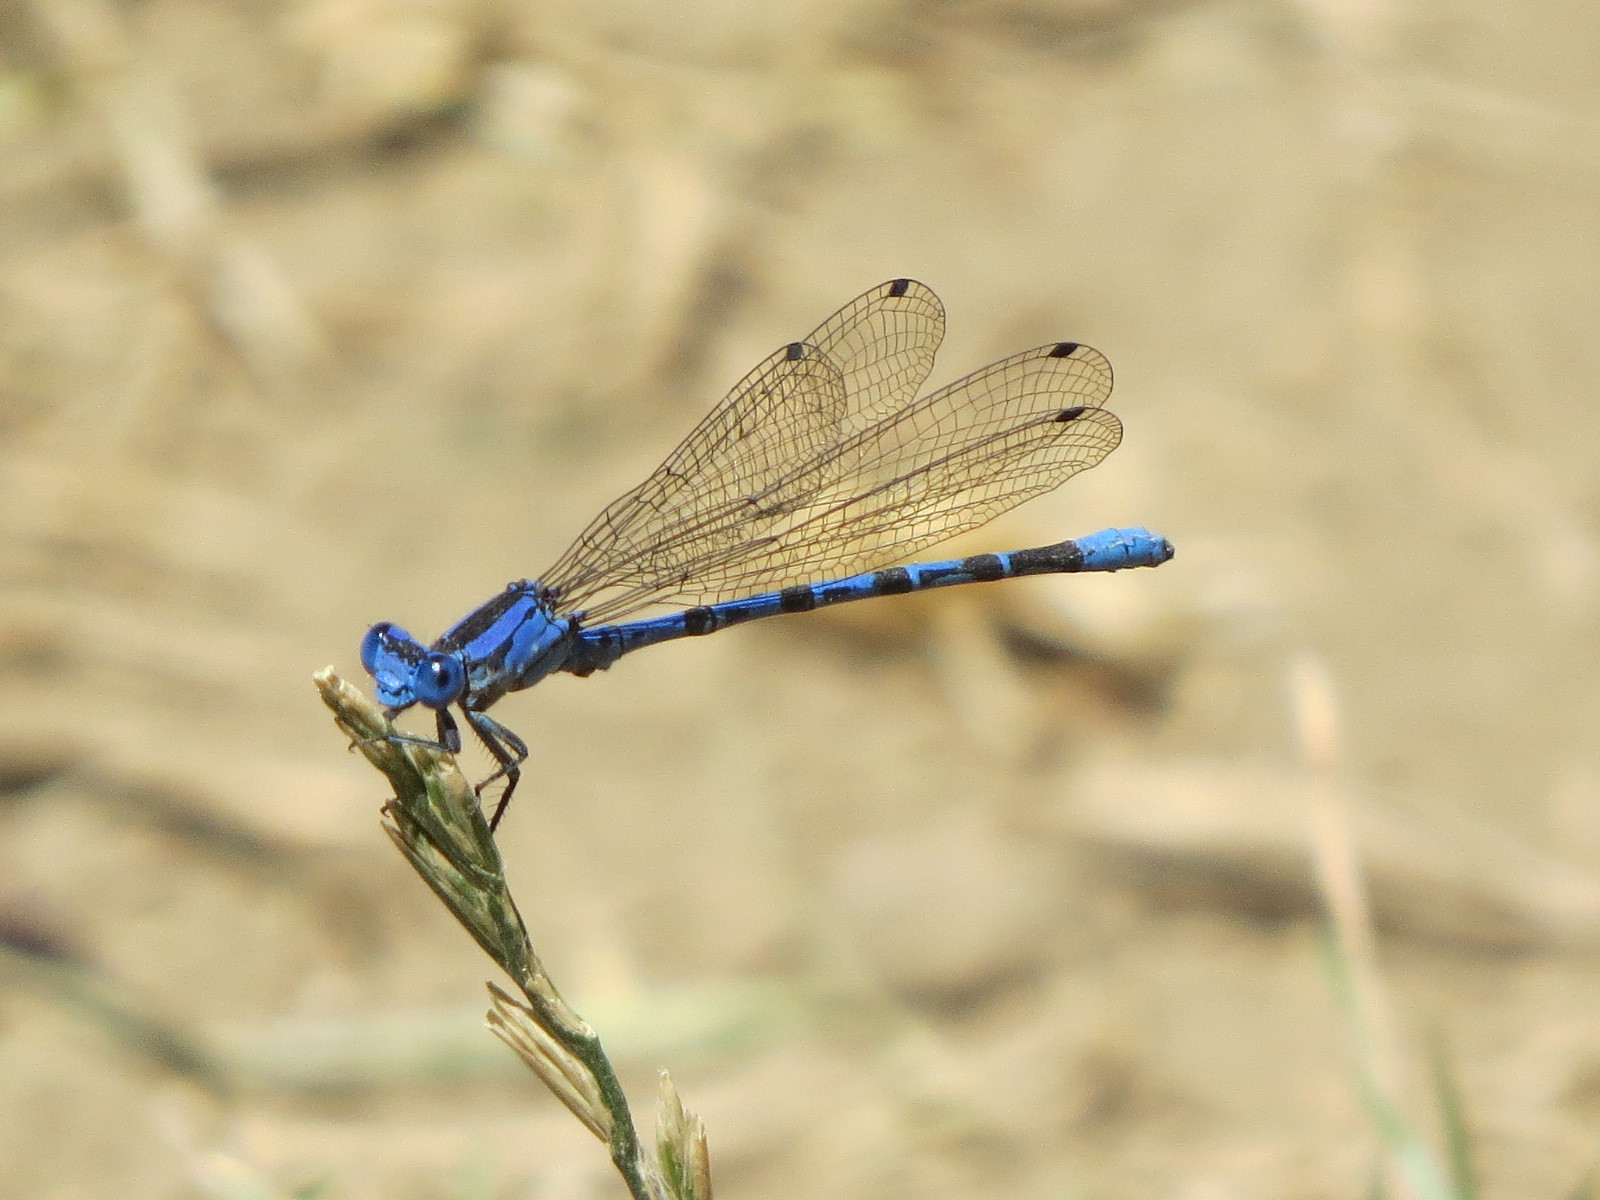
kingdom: Animalia
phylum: Arthropoda
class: Insecta
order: Odonata
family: Coenagrionidae
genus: Argia
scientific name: Argia vivida
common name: Vivid dancer
